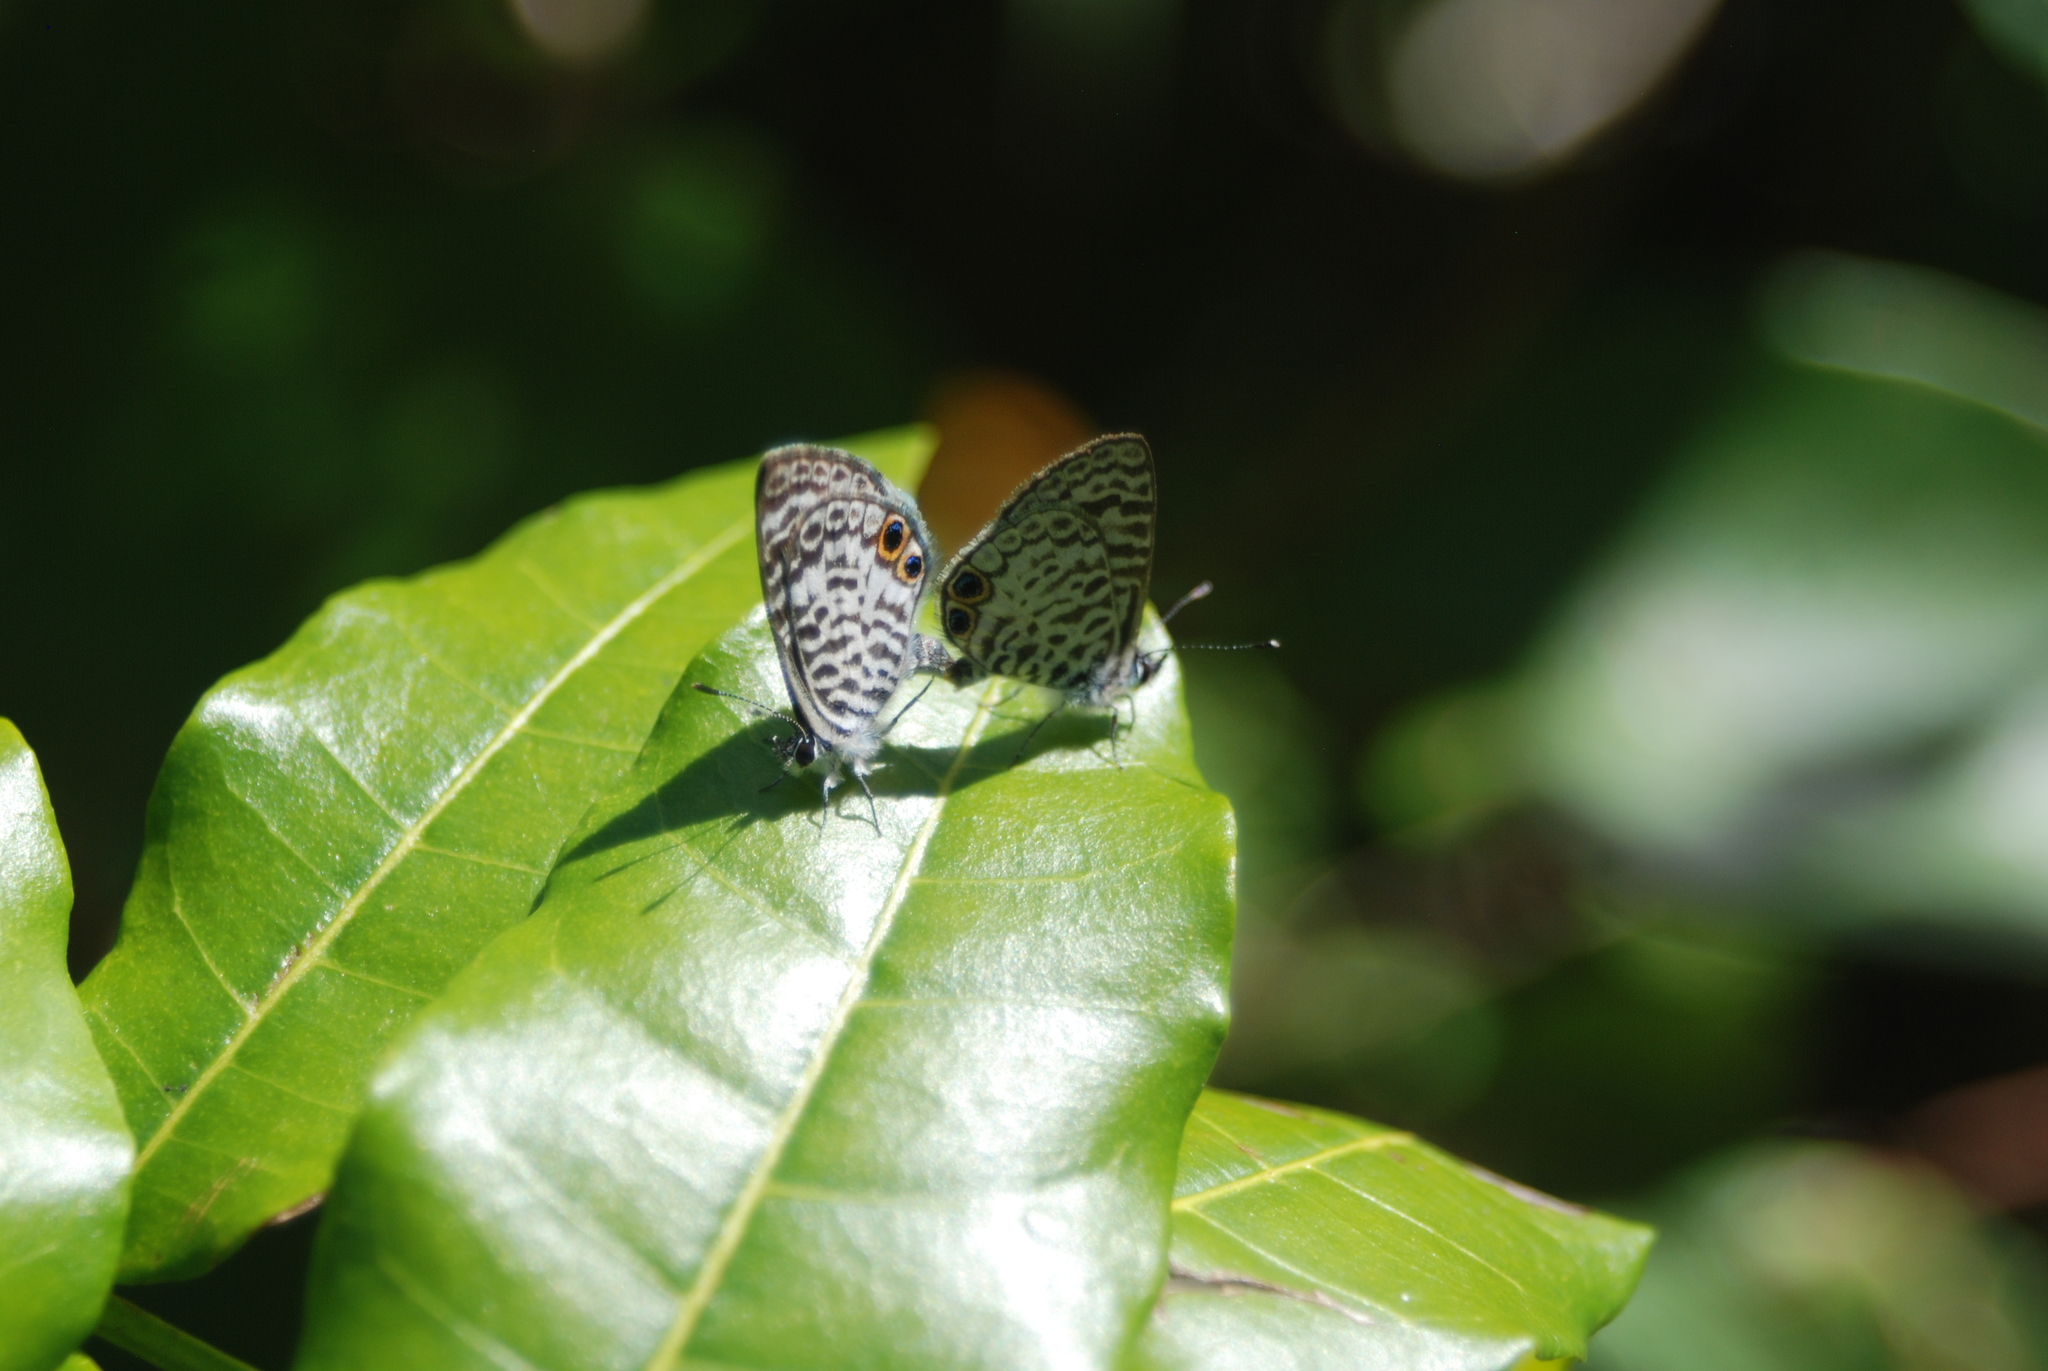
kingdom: Animalia
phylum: Arthropoda
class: Insecta
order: Lepidoptera
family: Lycaenidae
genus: Leptotes
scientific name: Leptotes theonus
